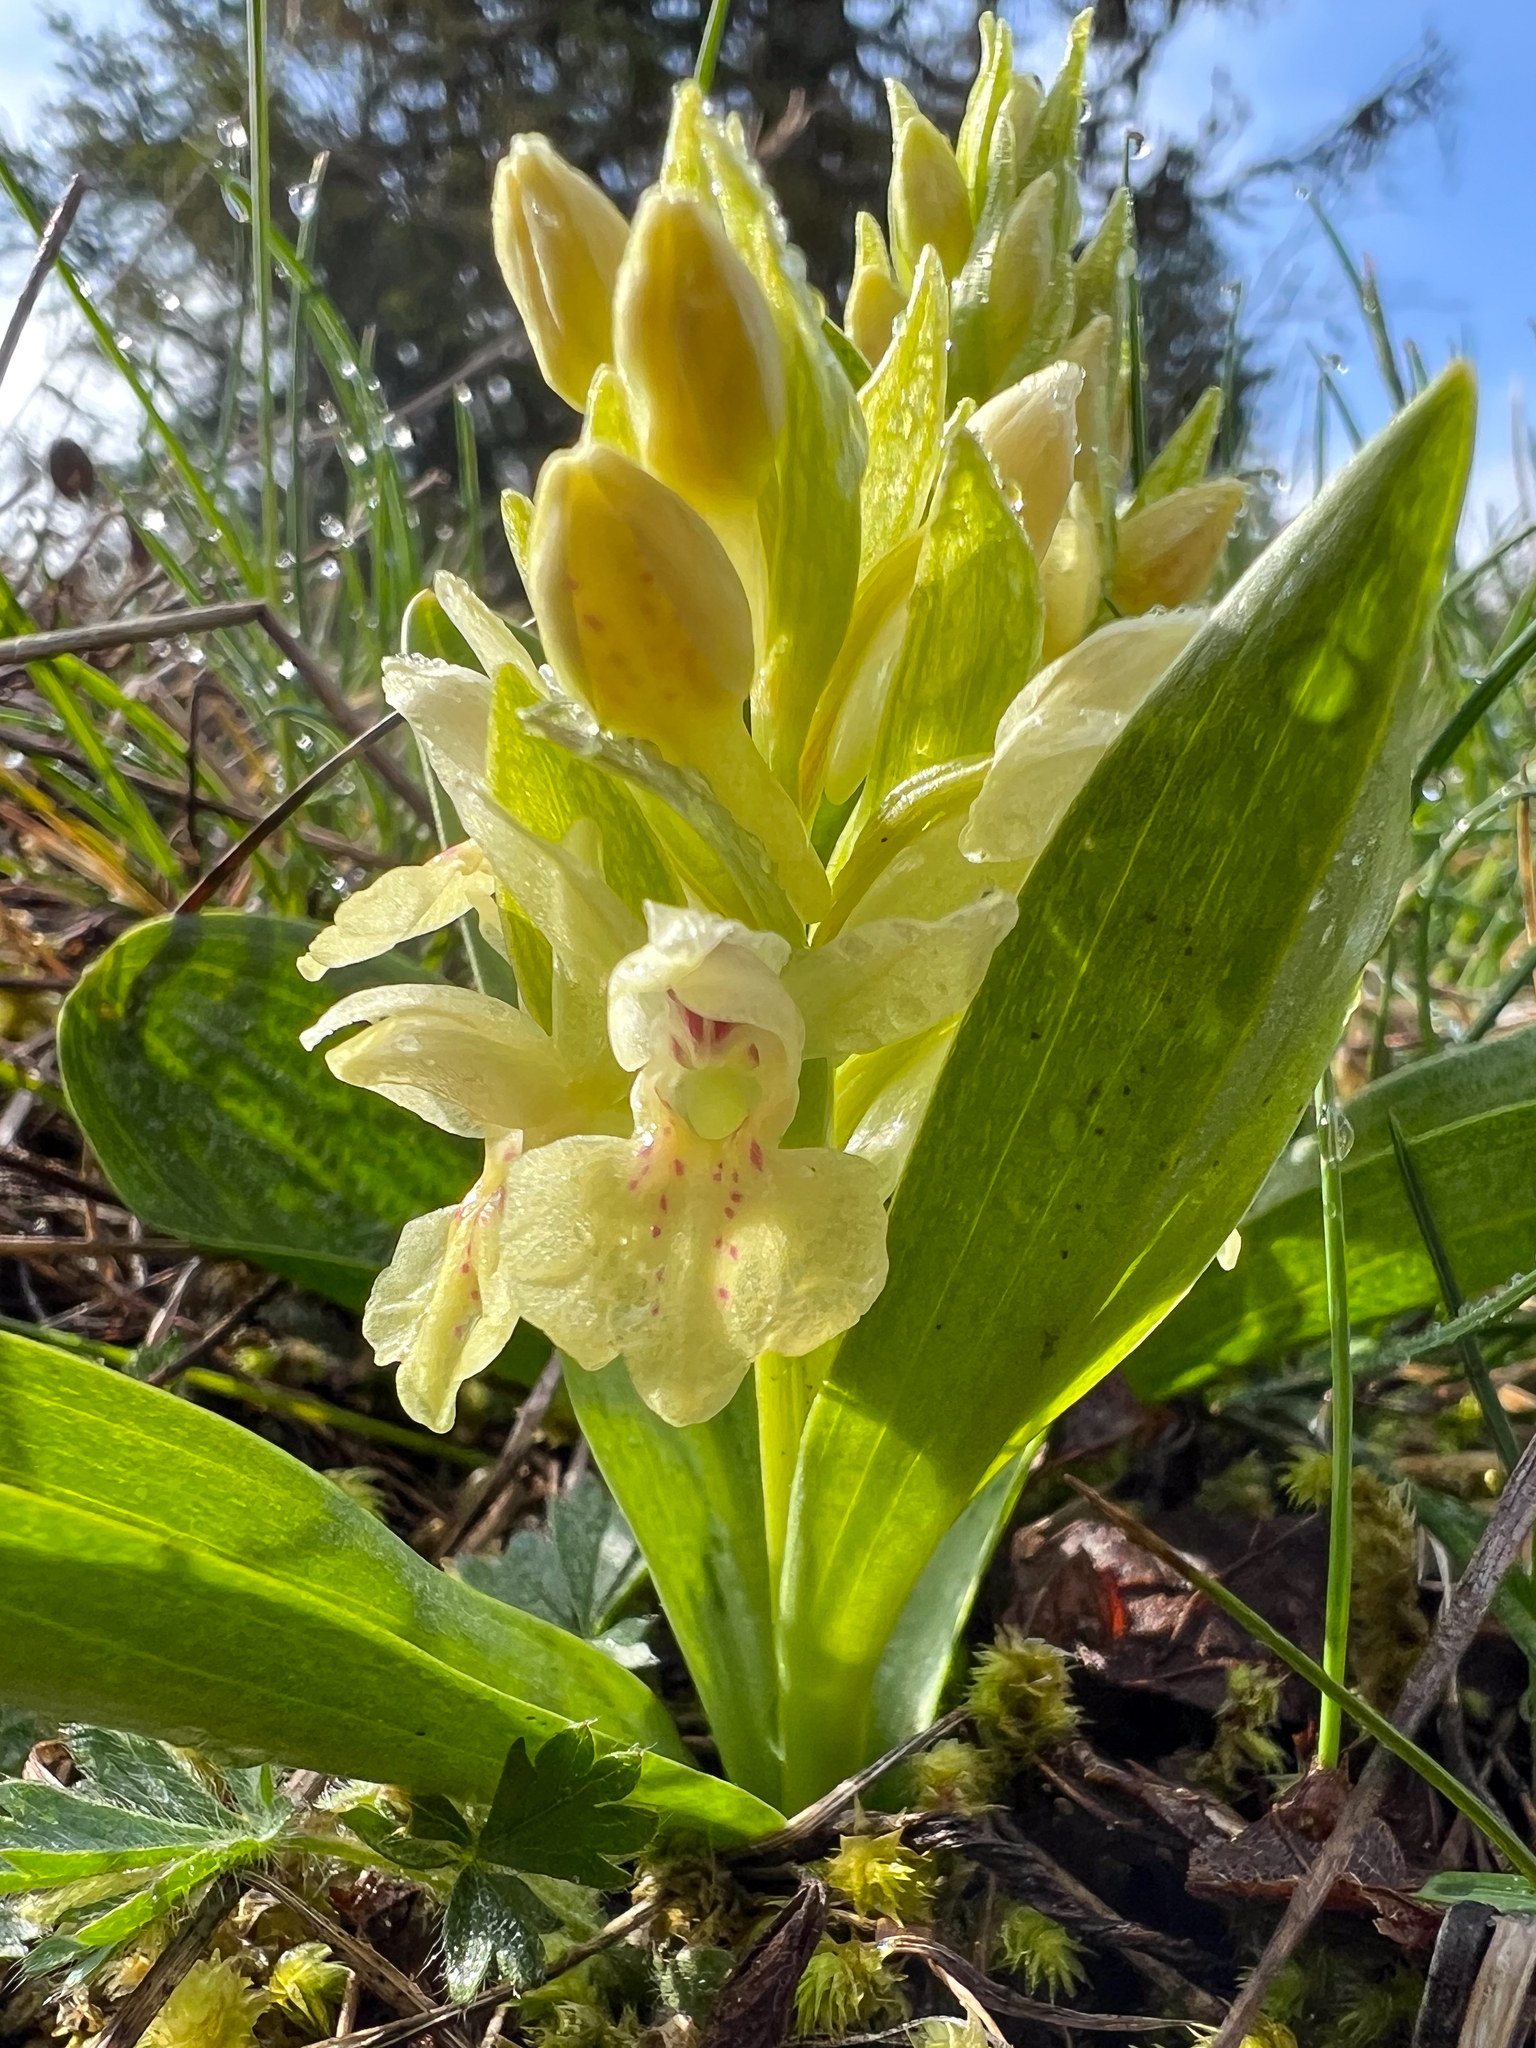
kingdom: Plantae
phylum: Tracheophyta
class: Liliopsida
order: Asparagales
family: Orchidaceae
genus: Dactylorhiza
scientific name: Dactylorhiza sambucina
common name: Elder-flowered orchid
